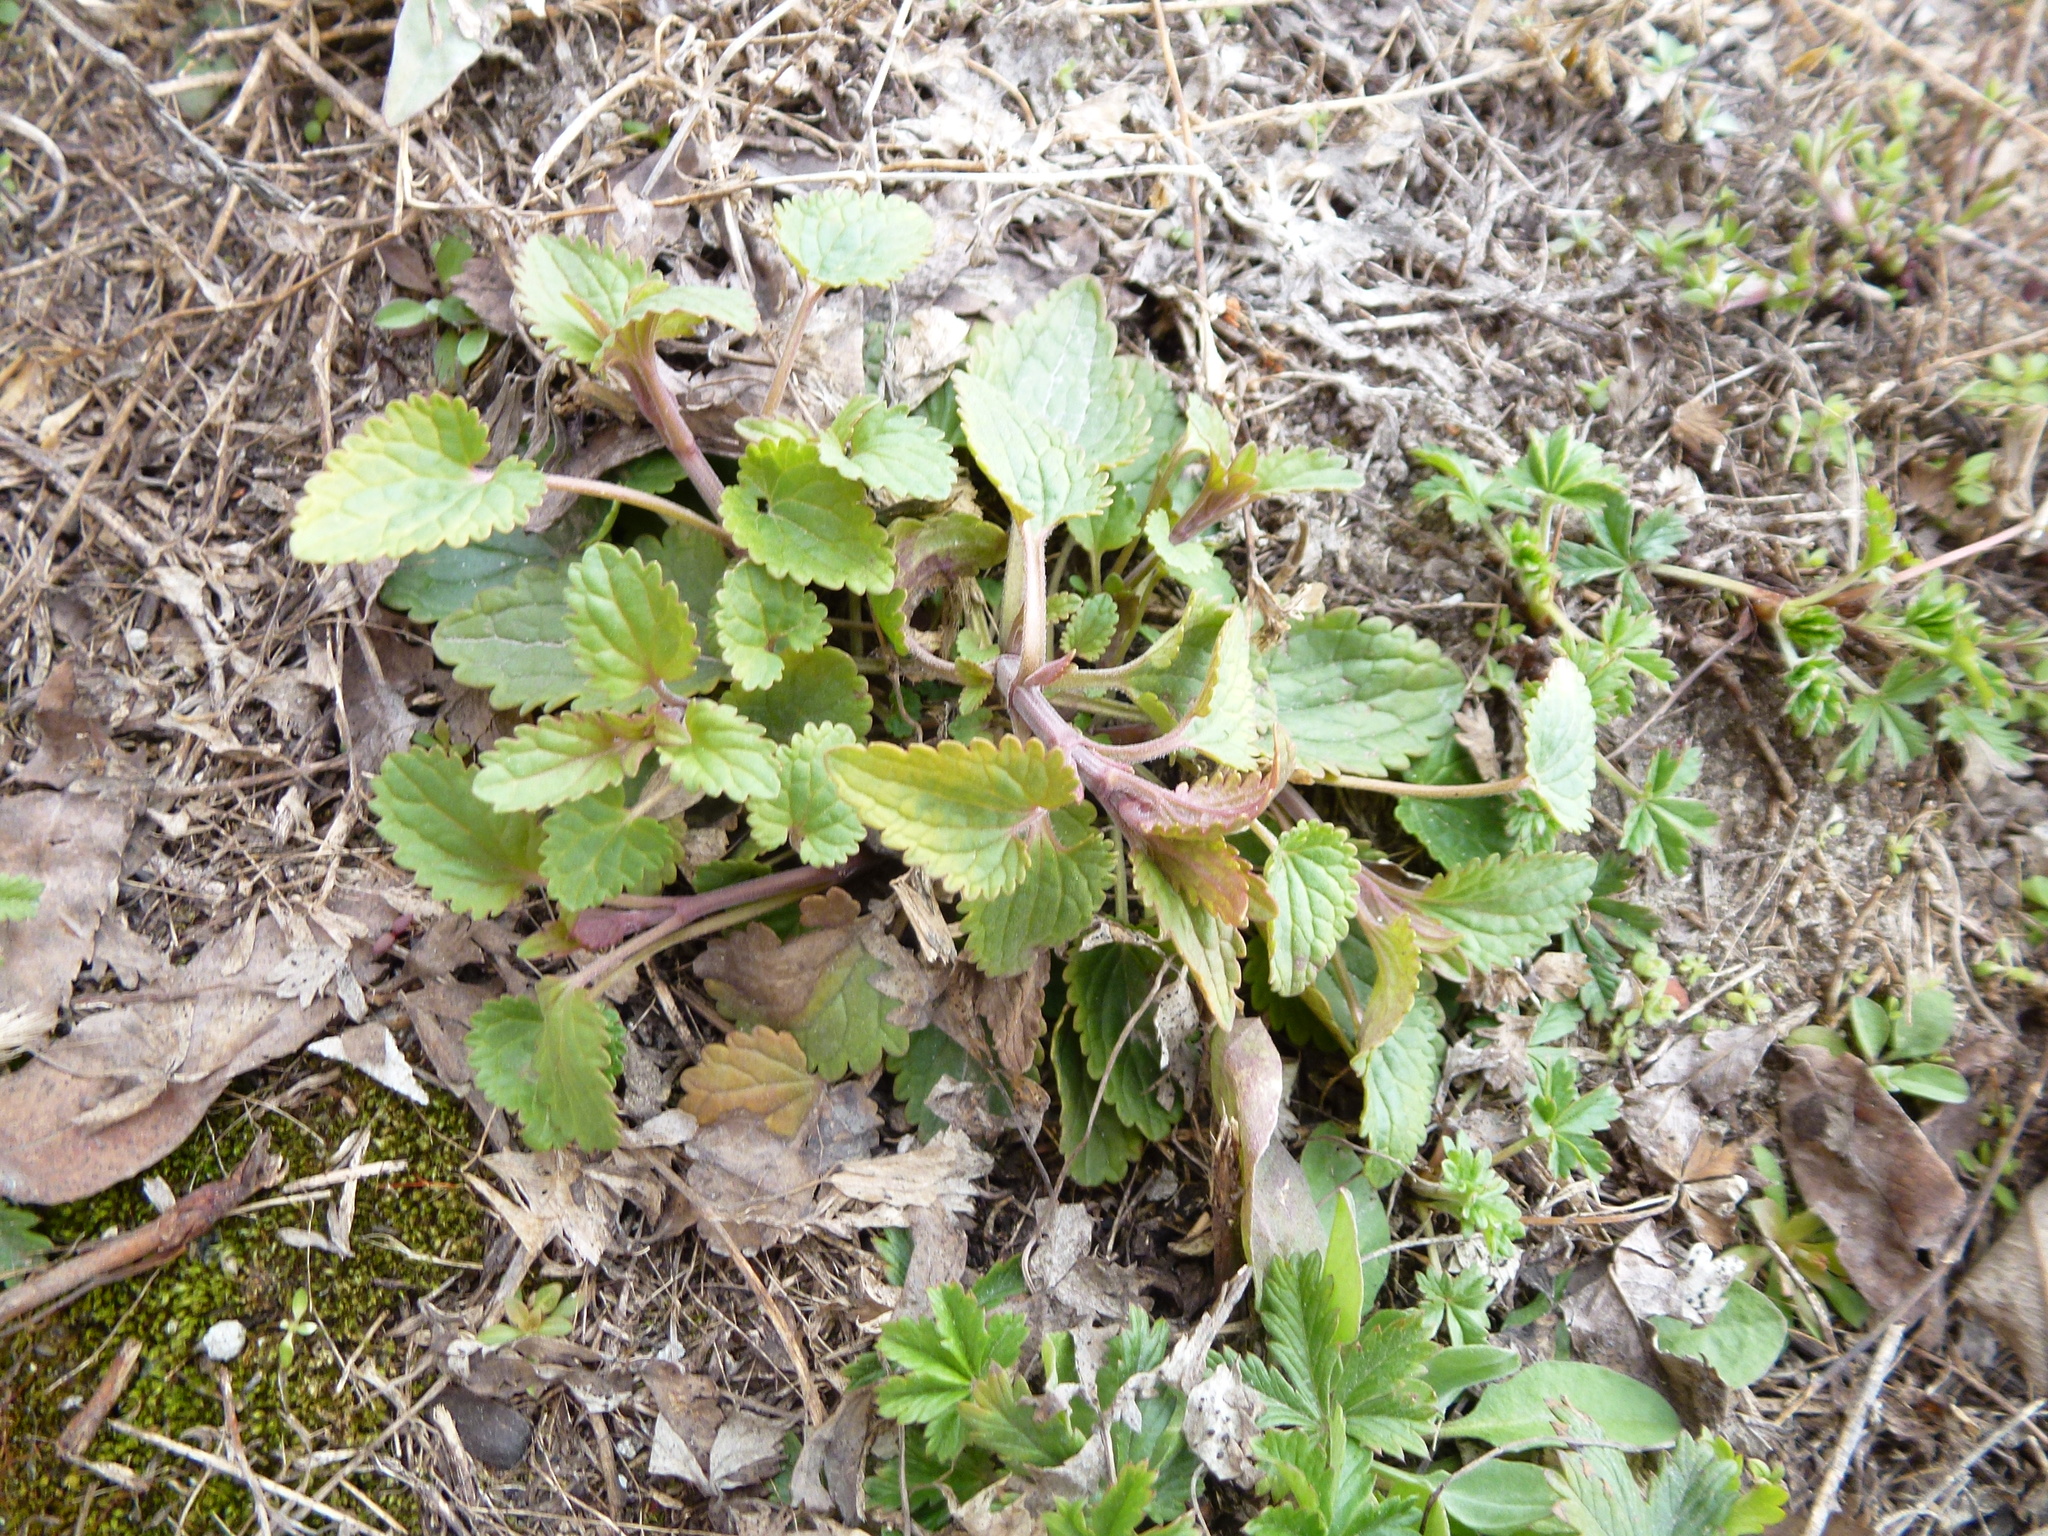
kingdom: Plantae
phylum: Tracheophyta
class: Magnoliopsida
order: Lamiales
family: Lamiaceae
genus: Dracocephalum
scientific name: Dracocephalum thymiflorum
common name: Thymeleaf dragonhead
